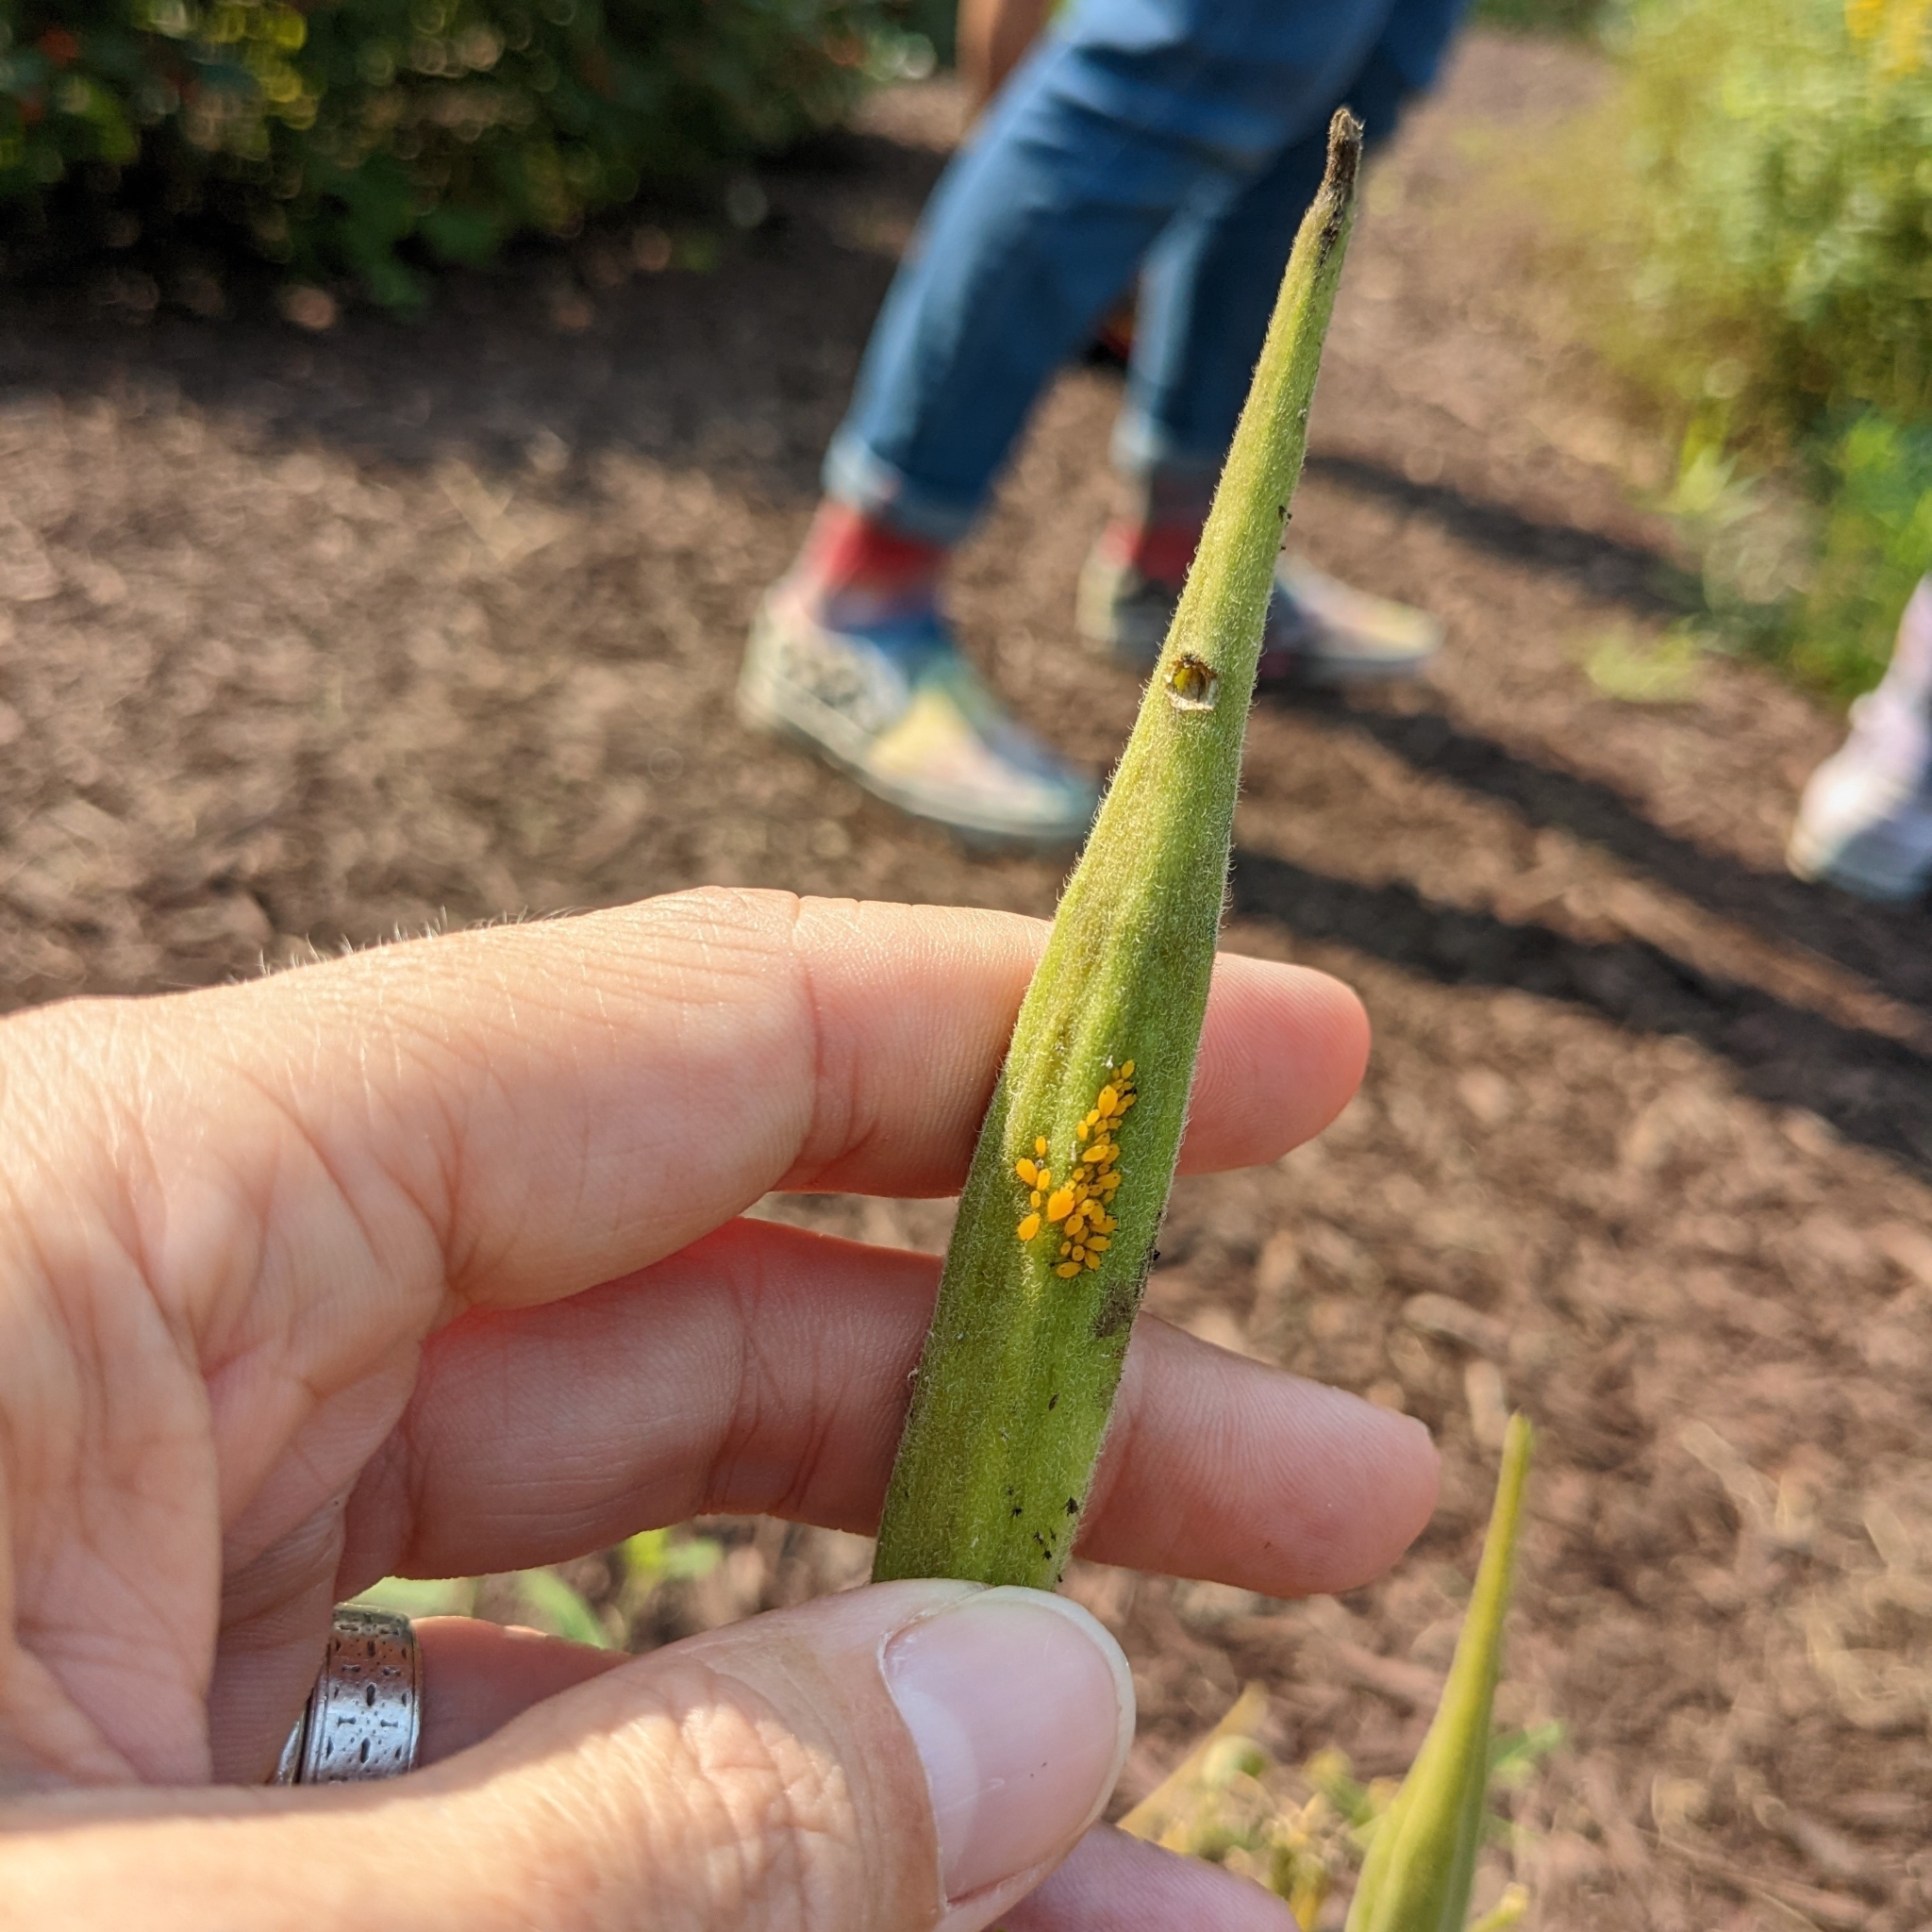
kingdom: Animalia
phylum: Arthropoda
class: Insecta
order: Hemiptera
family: Aphididae
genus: Aphis
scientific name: Aphis nerii
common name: Oleander aphid
